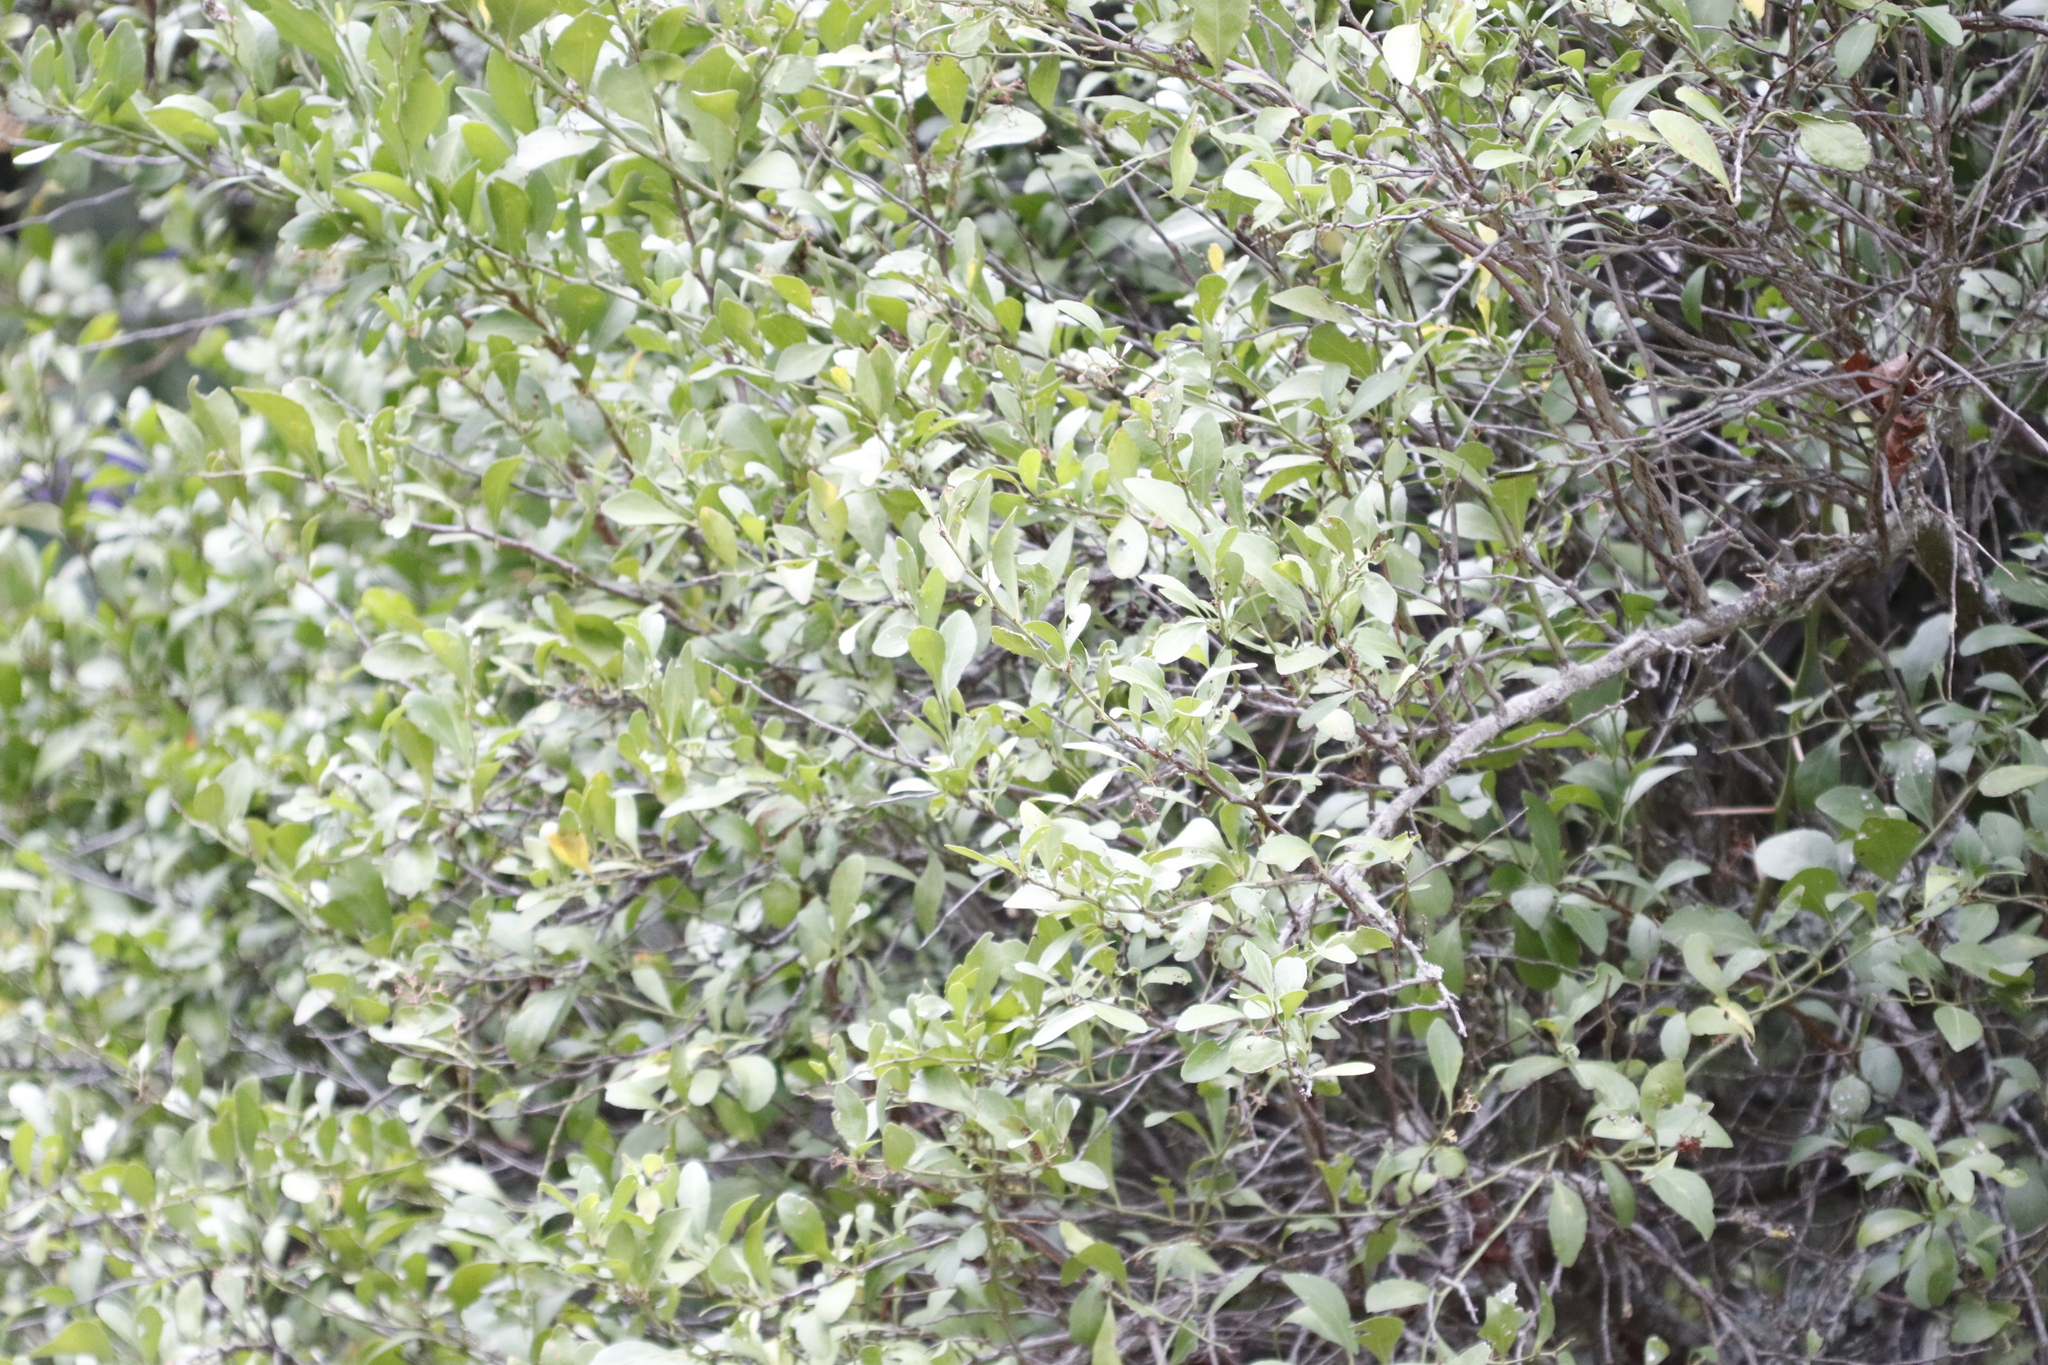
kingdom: Plantae
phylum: Tracheophyta
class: Magnoliopsida
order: Celastrales
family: Celastraceae
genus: Gymnosporia
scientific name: Gymnosporia buxifolia
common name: Common spike-thorn
